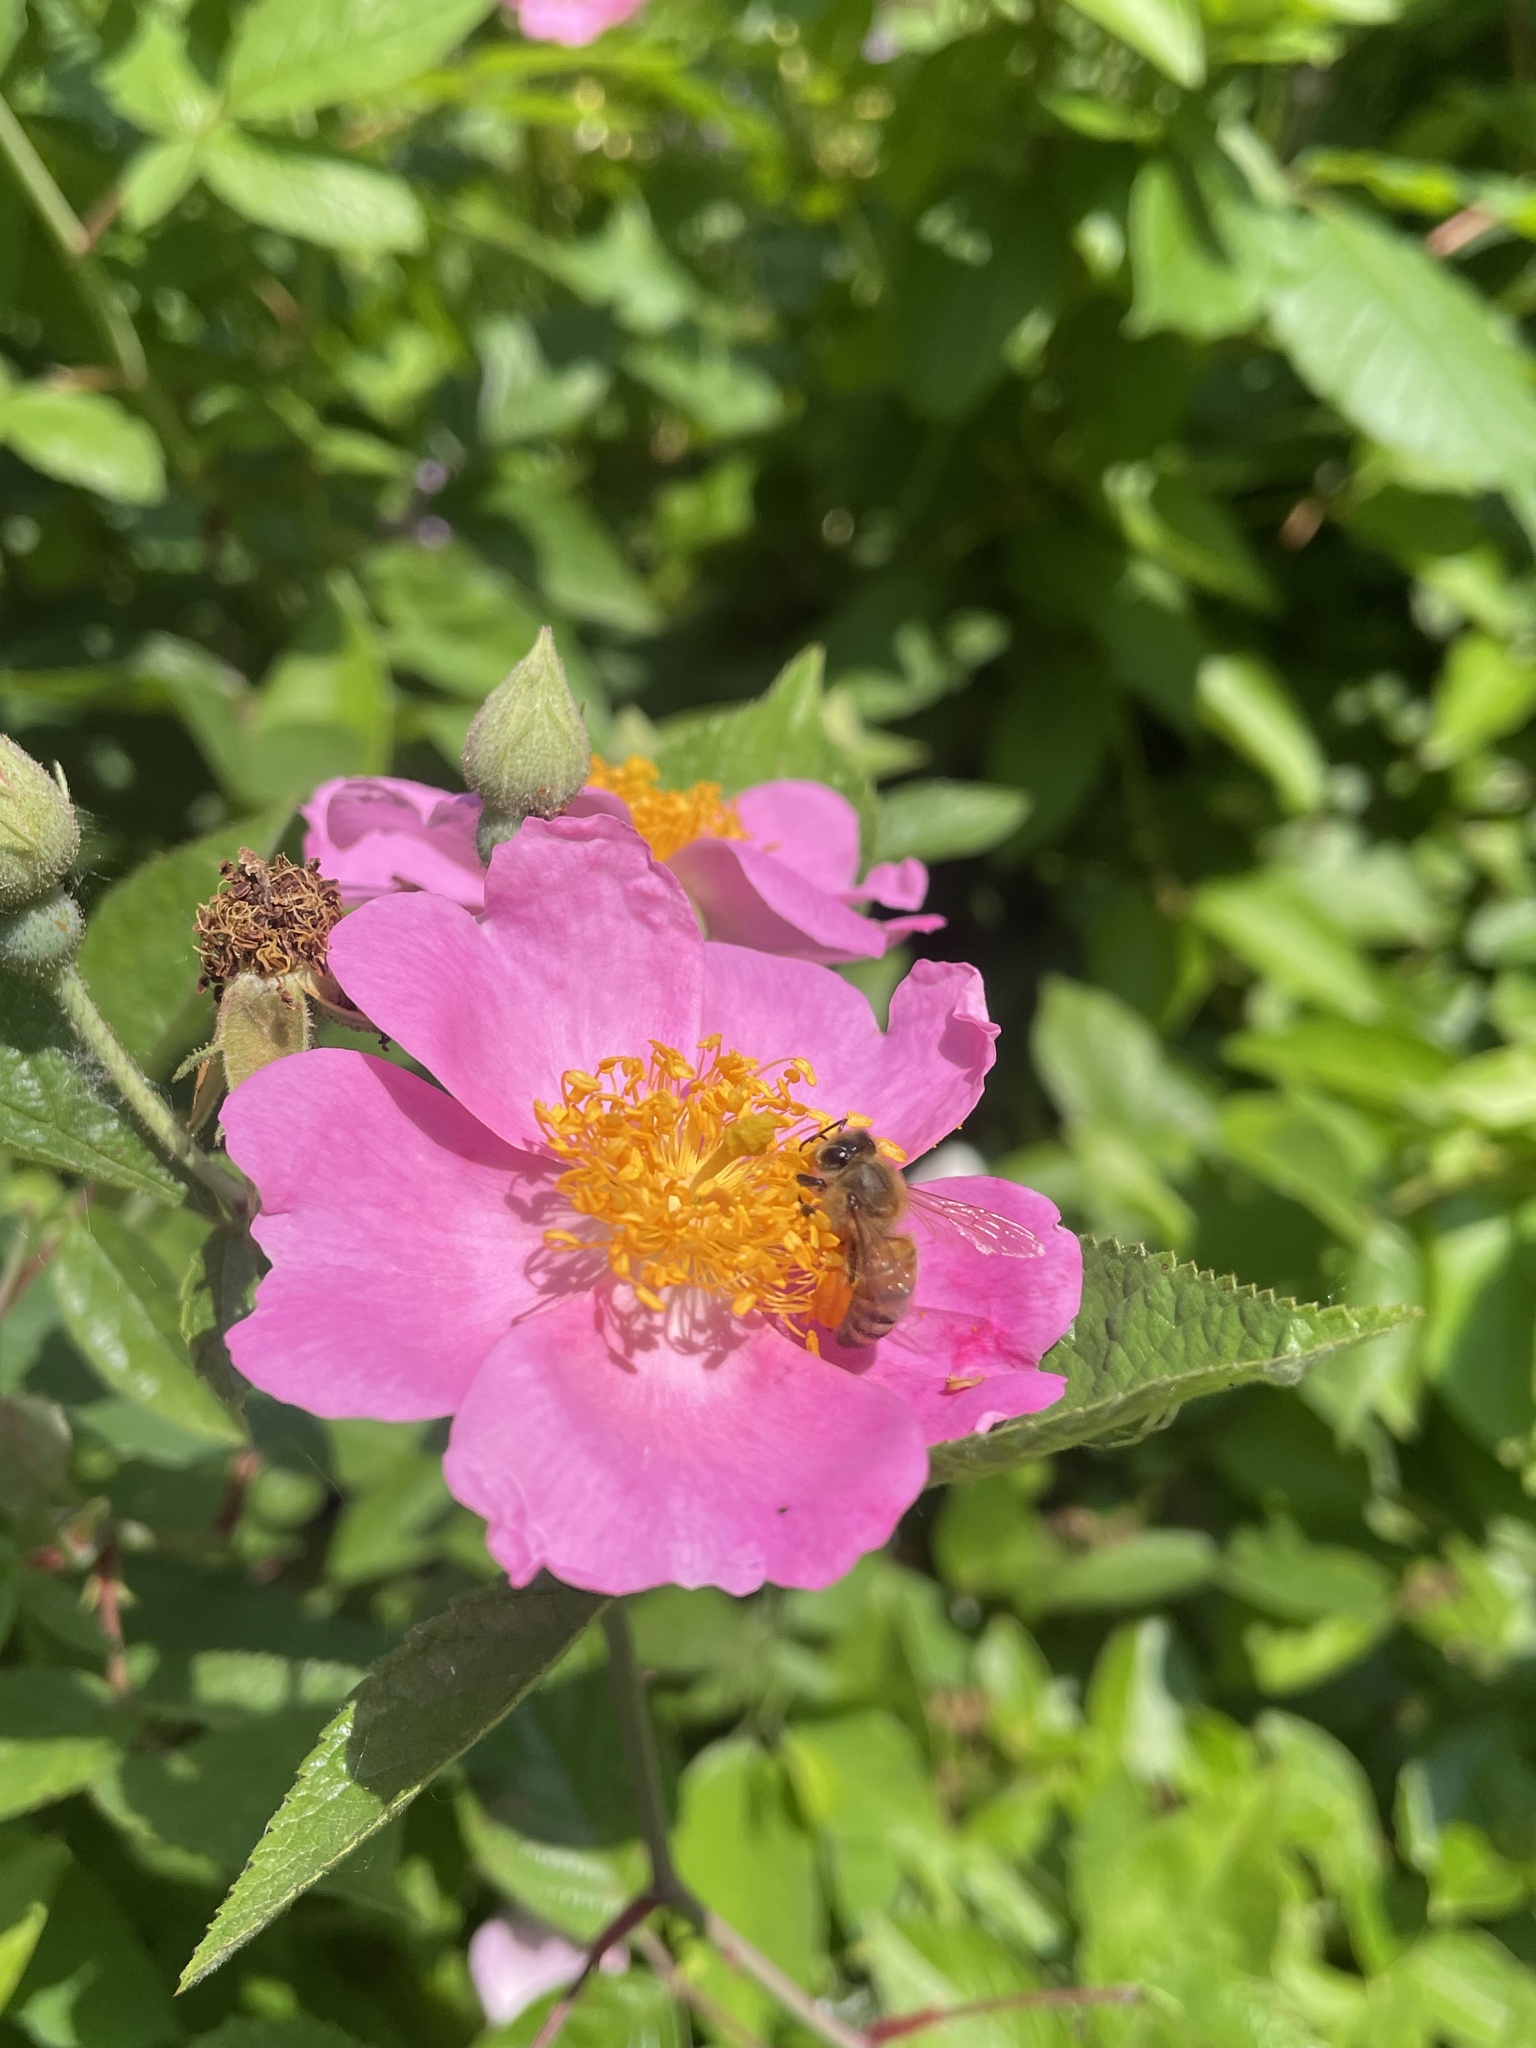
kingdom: Animalia
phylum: Arthropoda
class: Insecta
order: Hymenoptera
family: Apidae
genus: Apis
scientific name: Apis mellifera
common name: Honey bee
